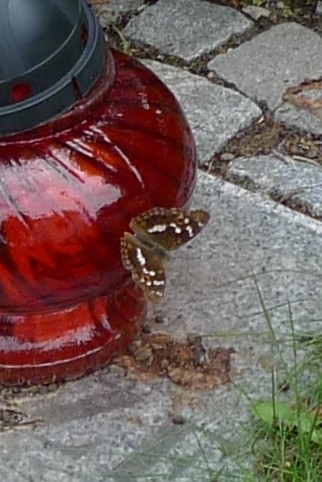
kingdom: Animalia
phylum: Arthropoda
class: Insecta
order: Lepidoptera
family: Nymphalidae
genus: Apatura
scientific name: Apatura ilia
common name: Lesser purple emperor
